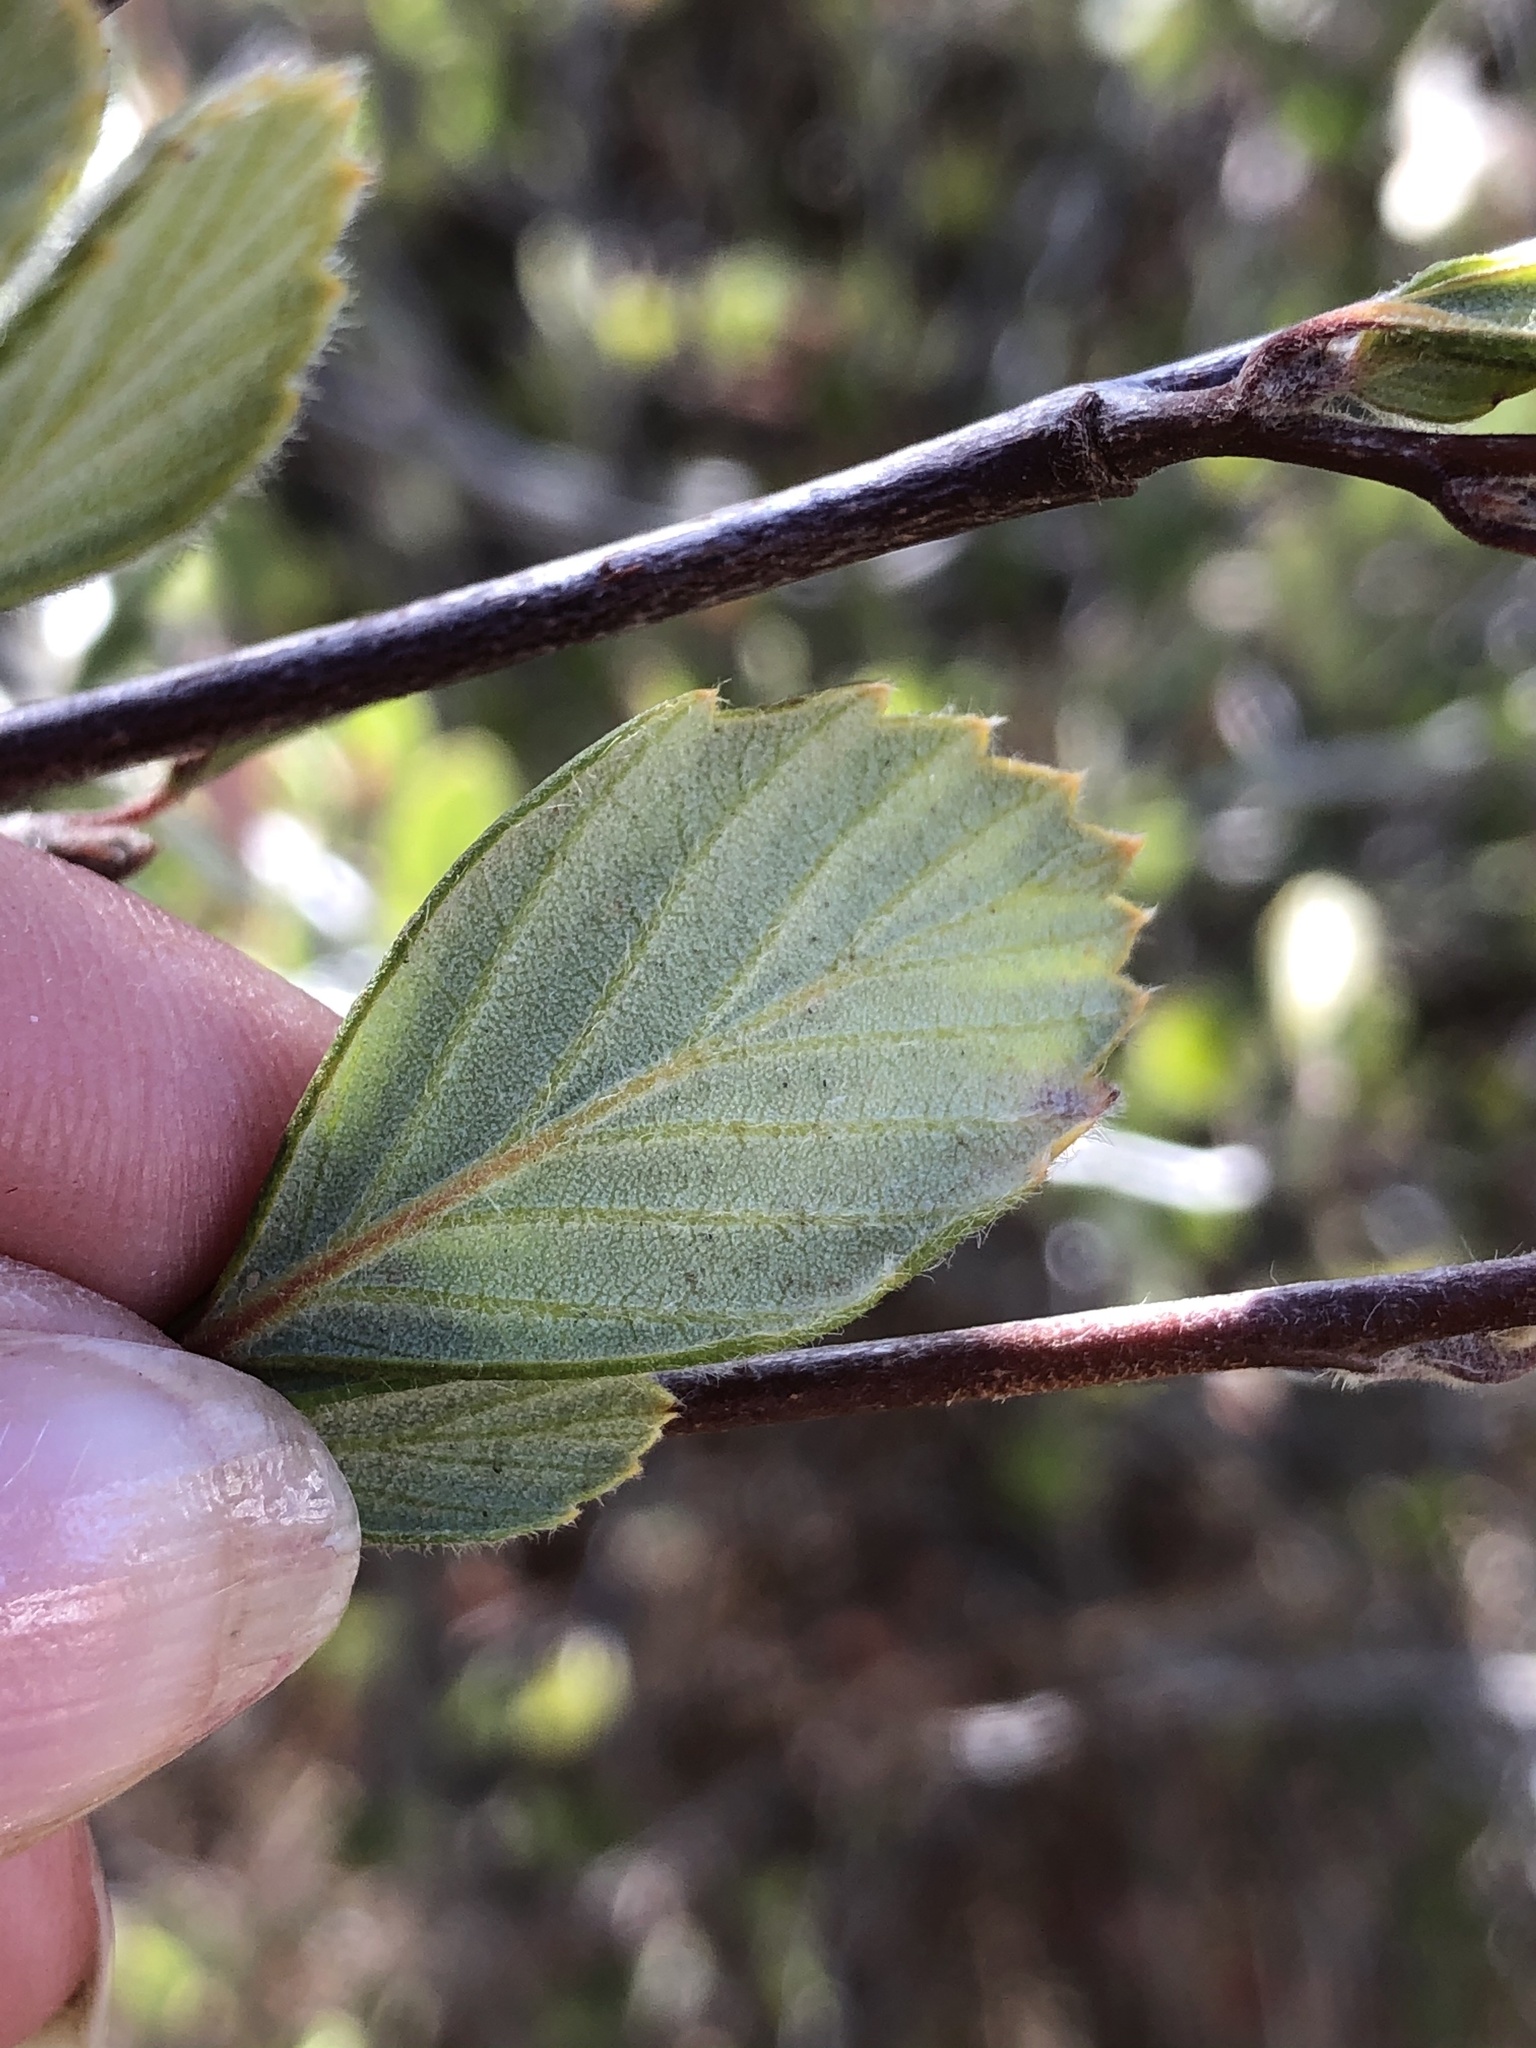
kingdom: Plantae
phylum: Tracheophyta
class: Magnoliopsida
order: Rosales
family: Rosaceae
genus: Cercocarpus
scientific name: Cercocarpus betuloides
